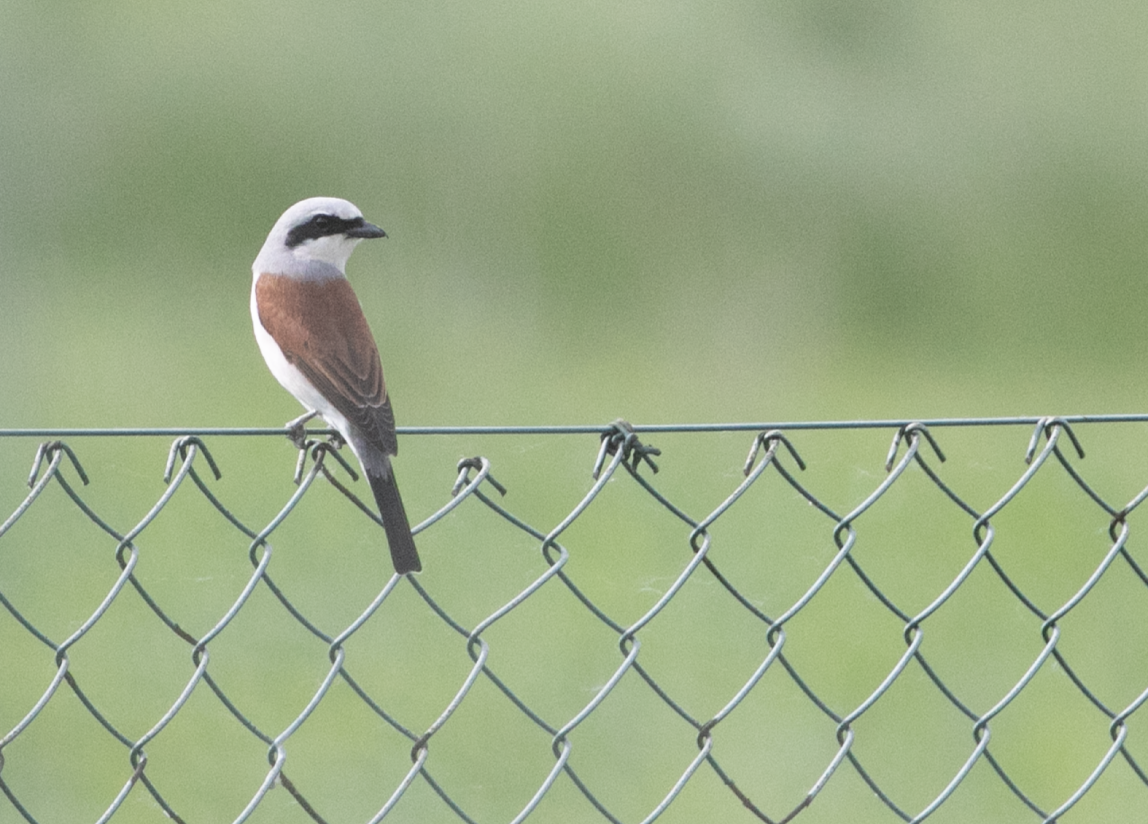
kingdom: Animalia
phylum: Chordata
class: Aves
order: Passeriformes
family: Laniidae
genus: Lanius
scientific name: Lanius collurio
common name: Red-backed shrike
